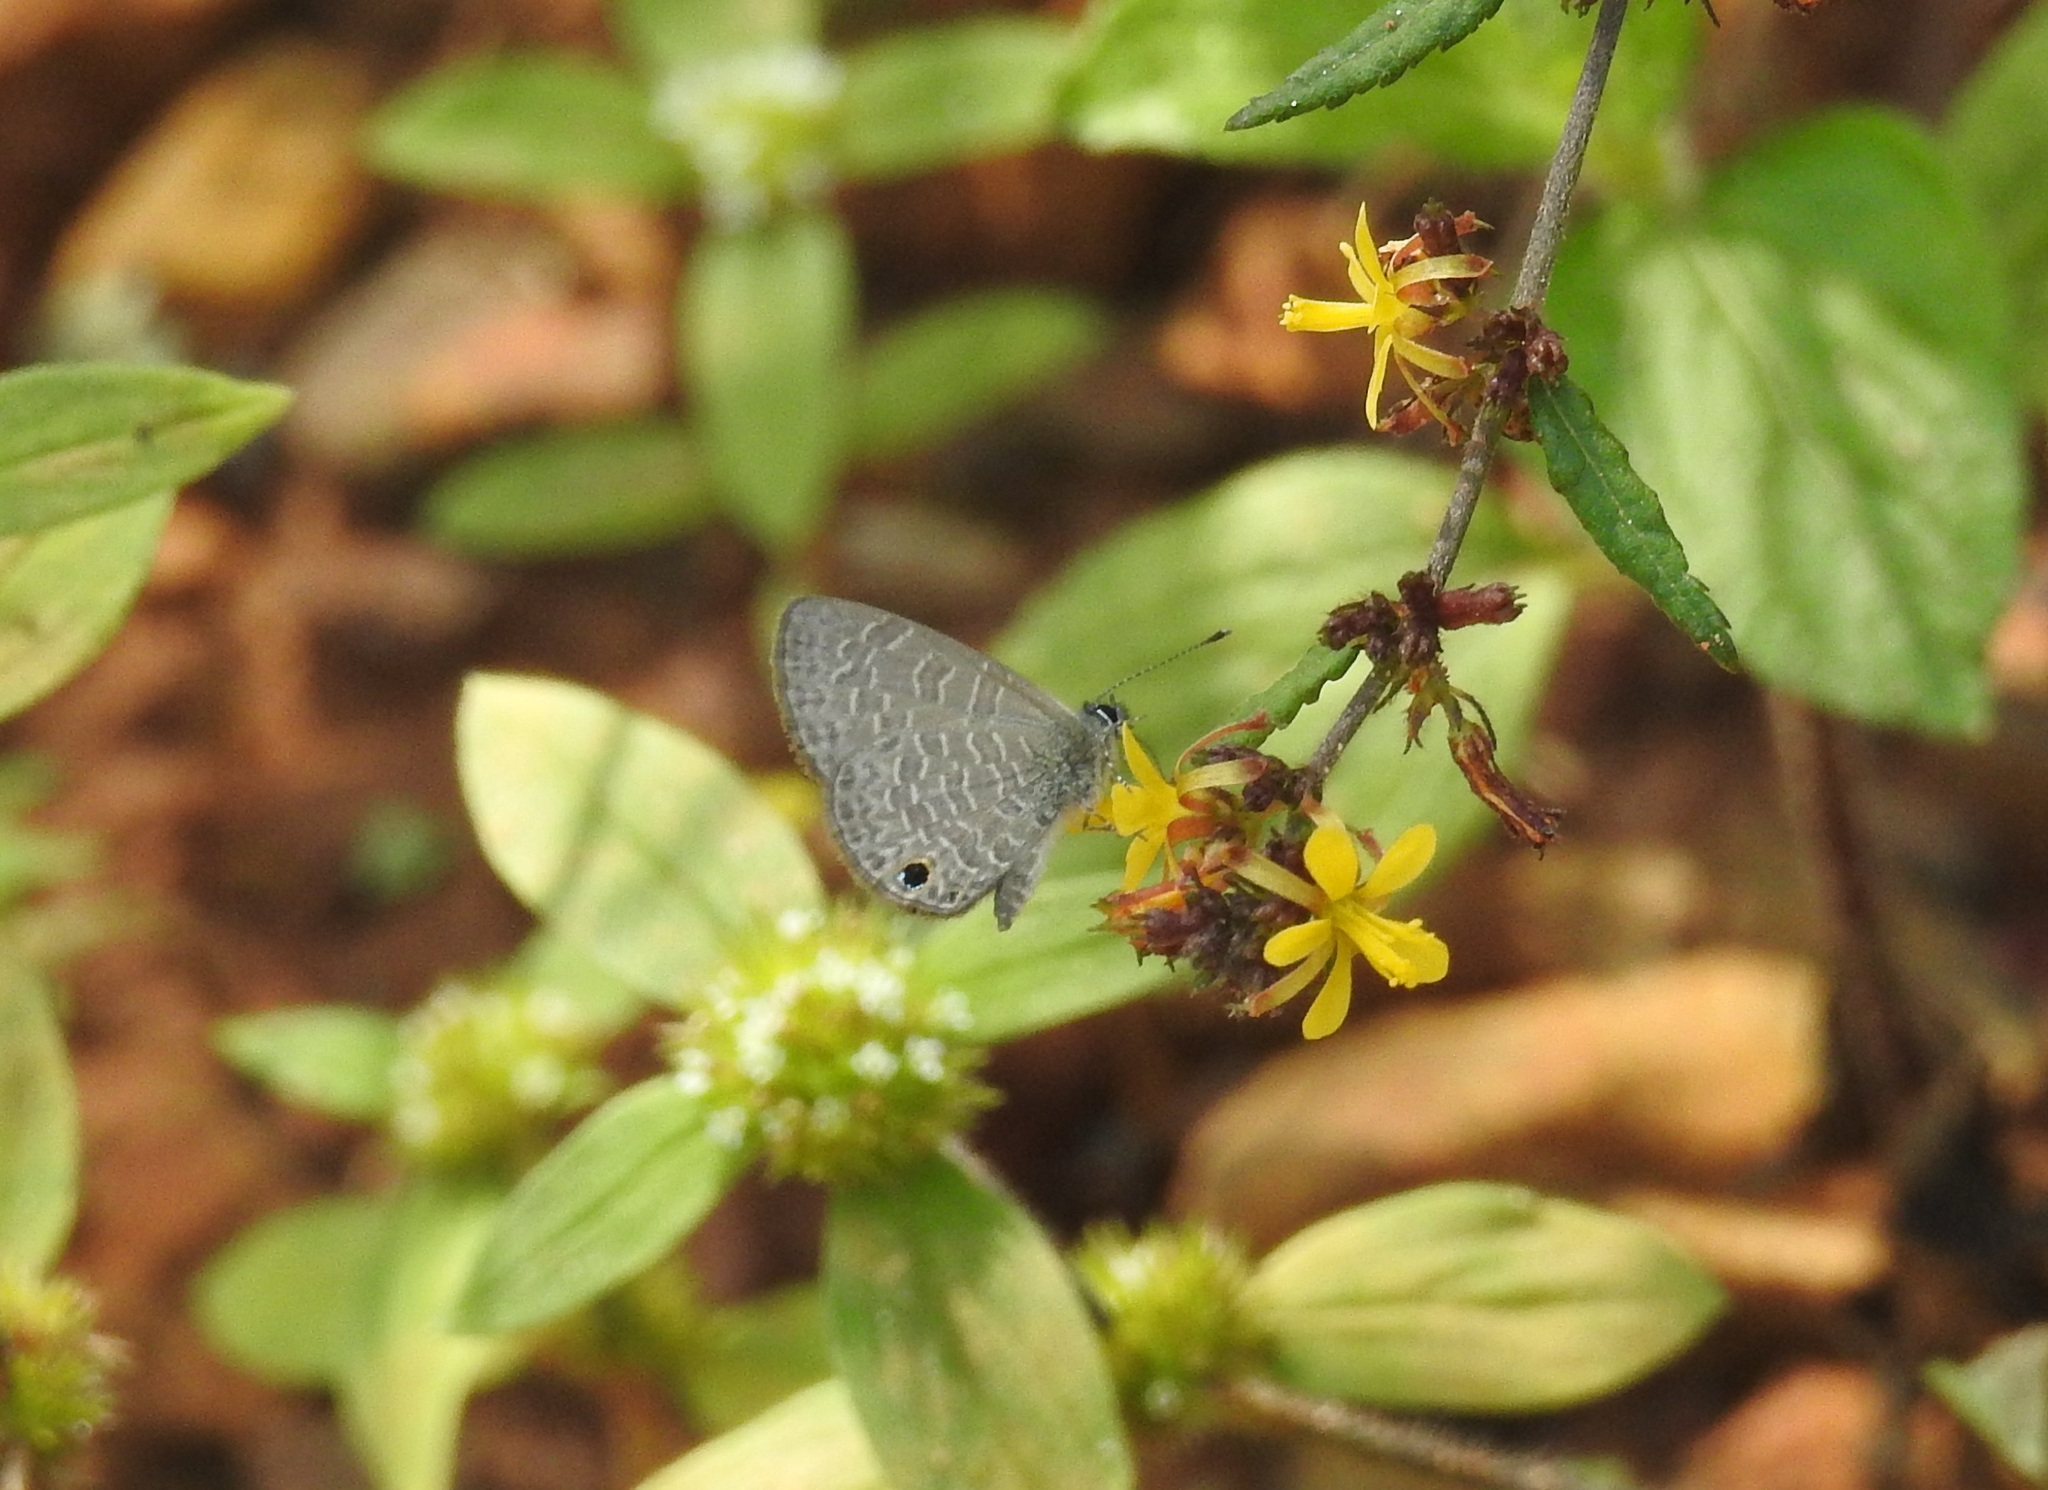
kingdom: Animalia
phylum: Arthropoda
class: Insecta
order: Lepidoptera
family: Lycaenidae
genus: Prosotas
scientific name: Prosotas dubiosa
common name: Tailless lineblue
